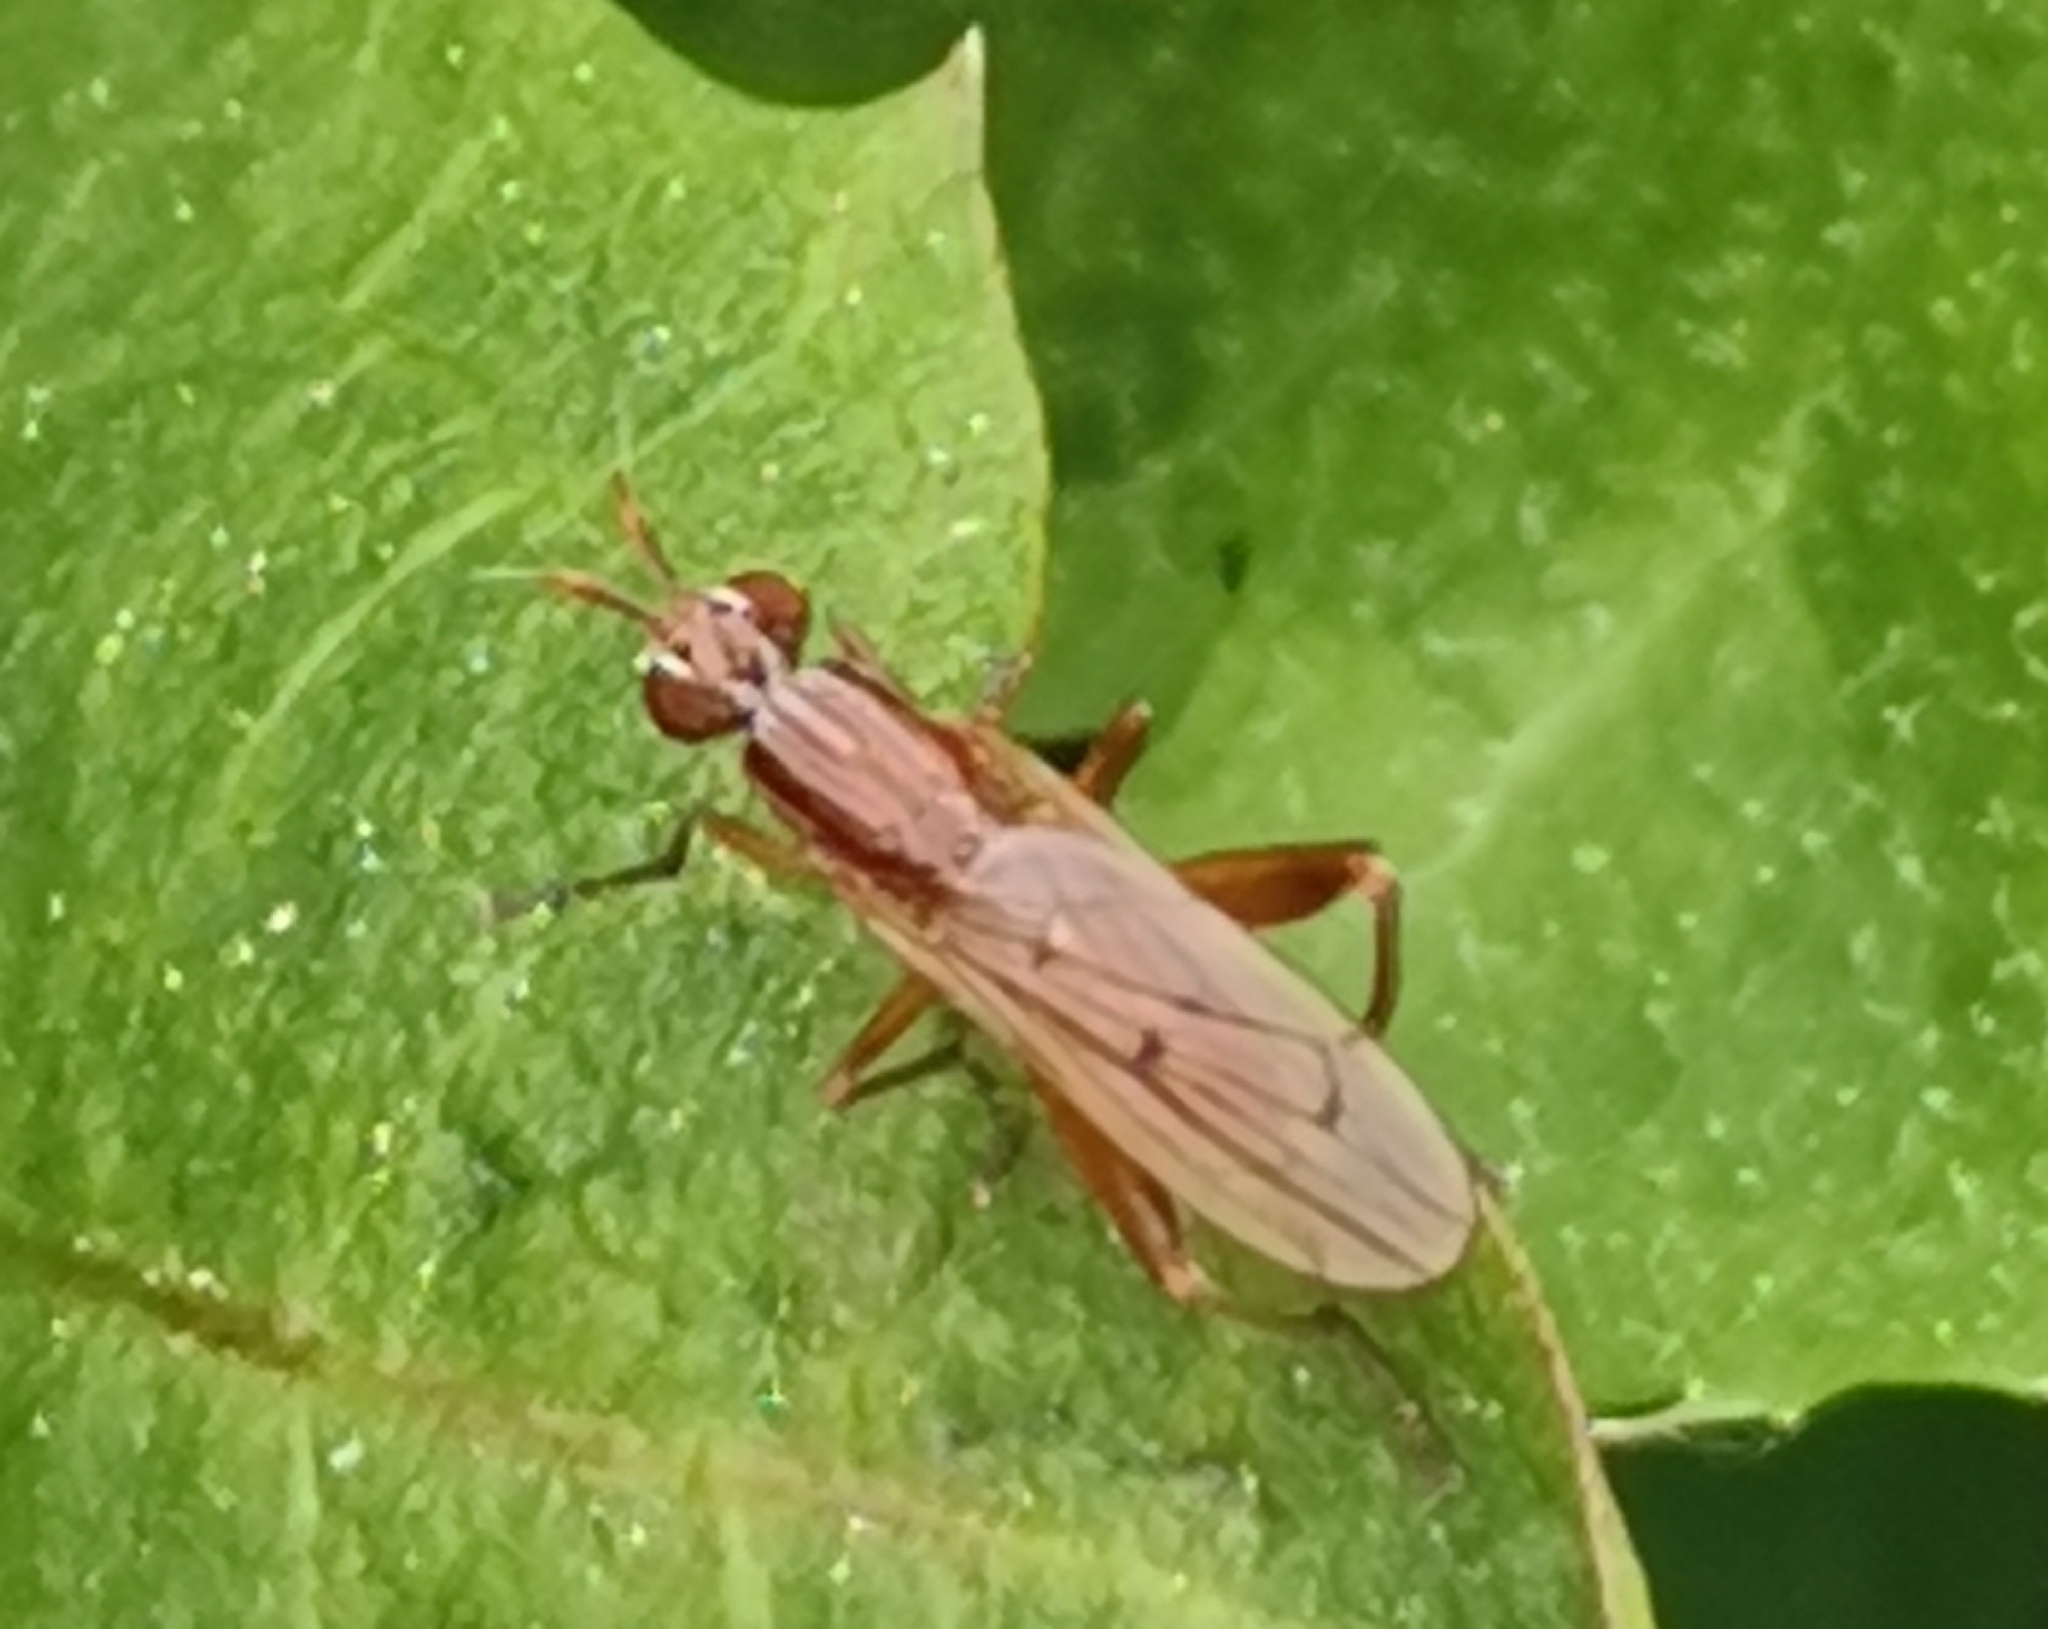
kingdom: Animalia
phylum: Arthropoda
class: Insecta
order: Diptera
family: Sciomyzidae
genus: Sepedon
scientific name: Sepedon spinipes
